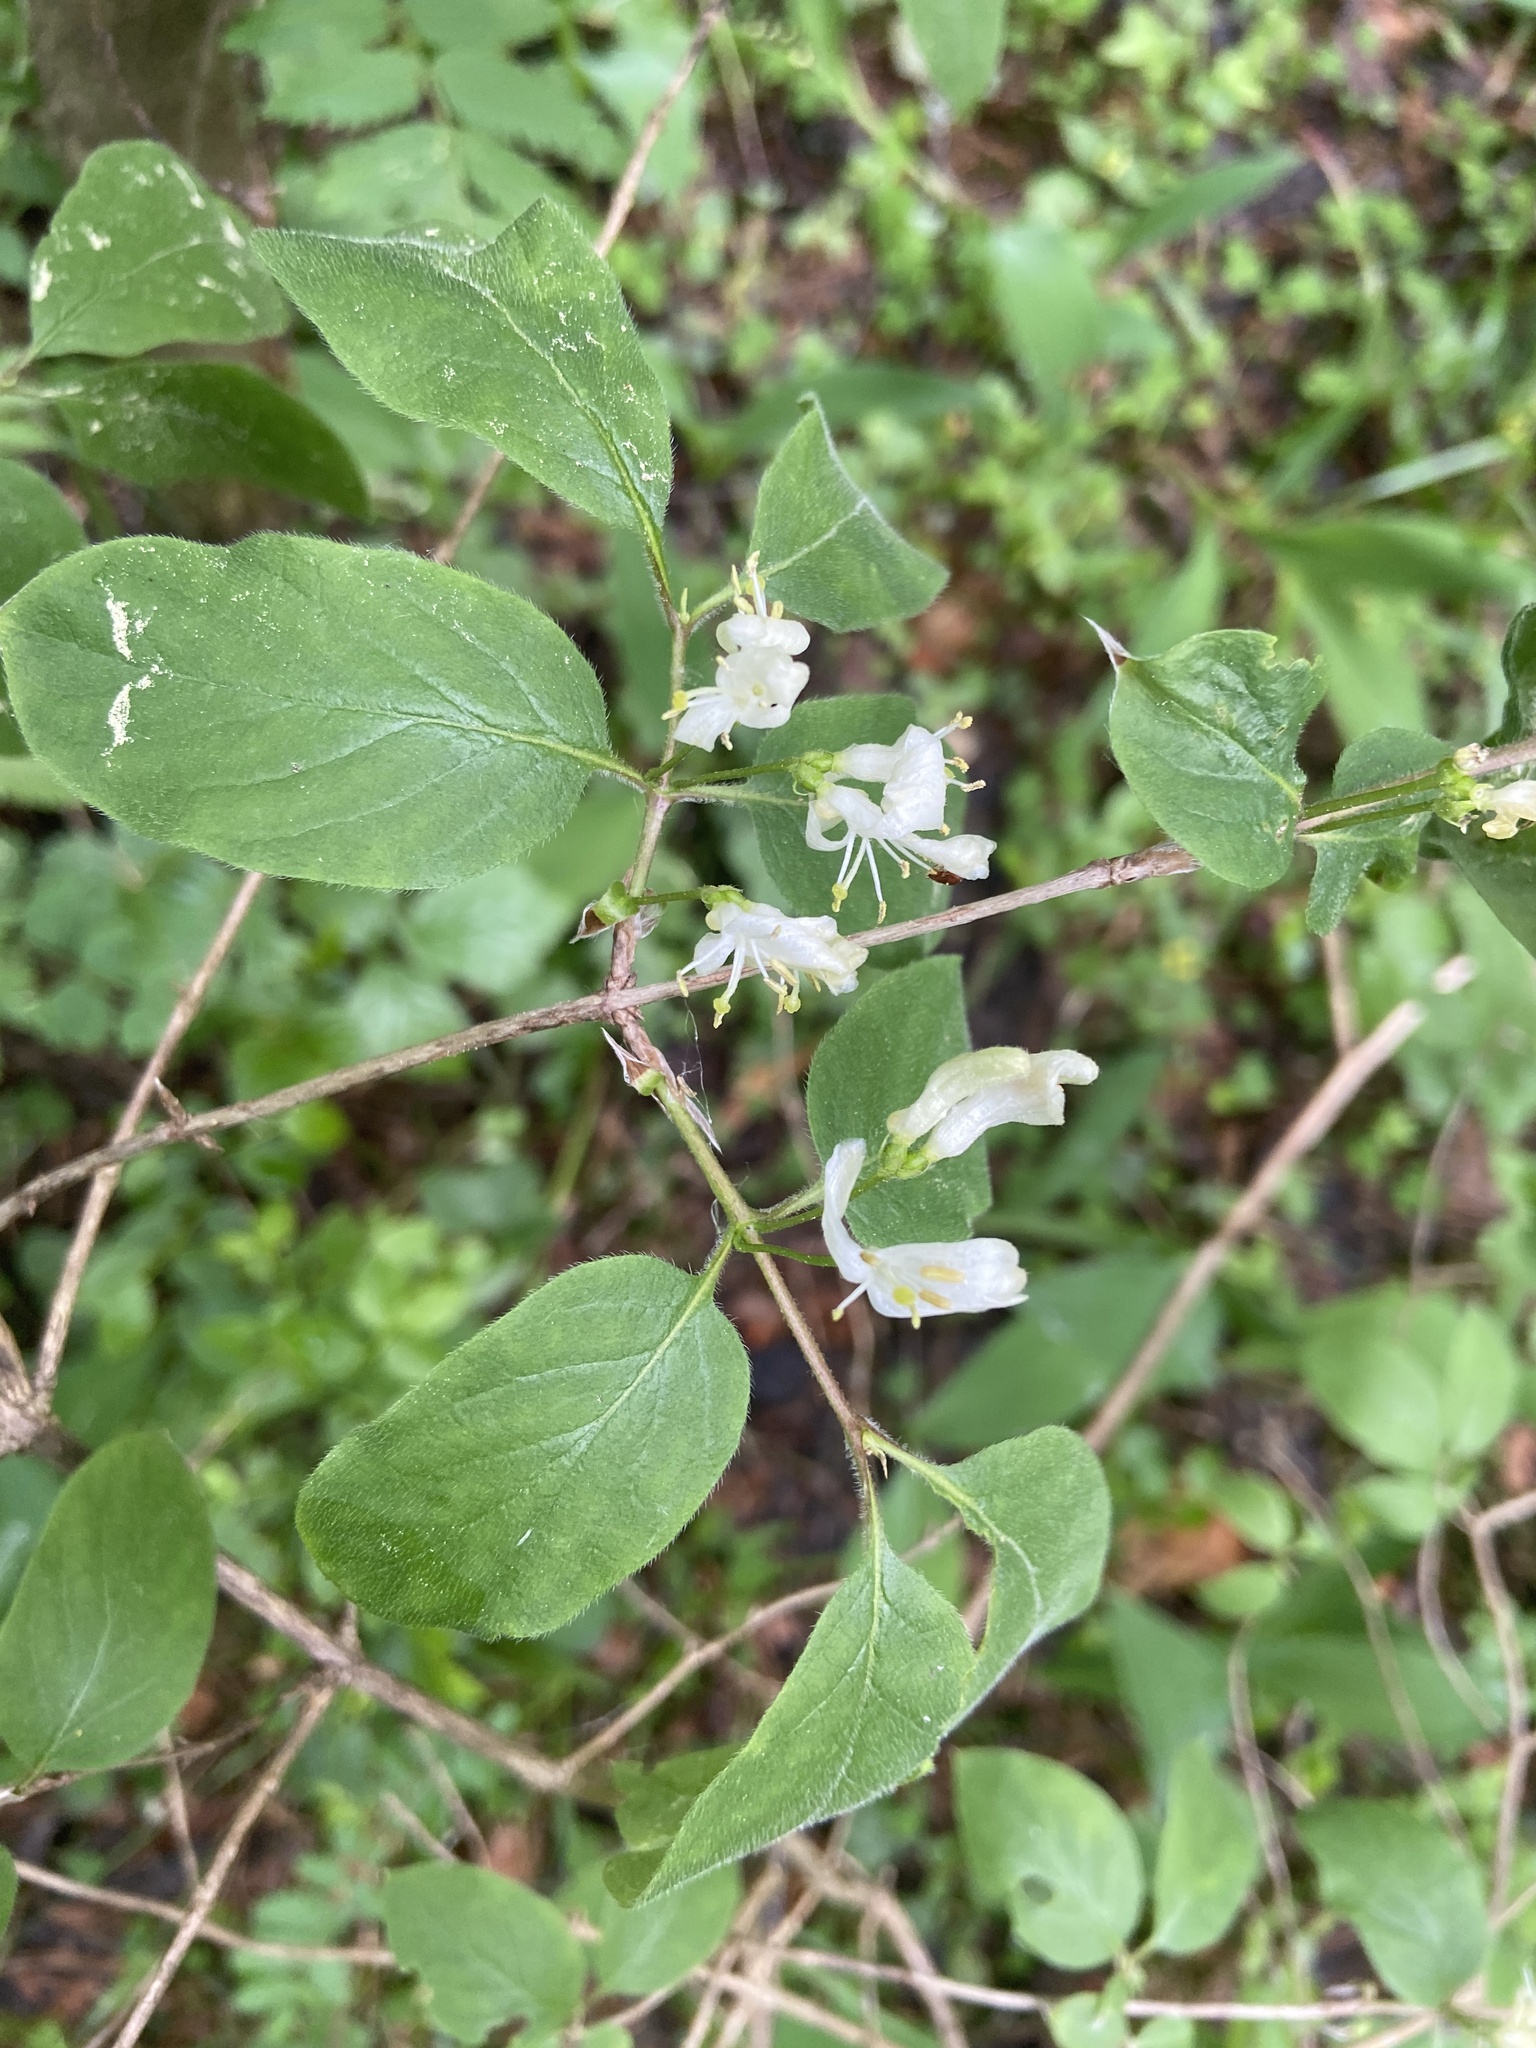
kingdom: Plantae
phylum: Tracheophyta
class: Magnoliopsida
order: Dipsacales
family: Caprifoliaceae
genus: Lonicera
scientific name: Lonicera xylosteum
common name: Fly honeysuckle
